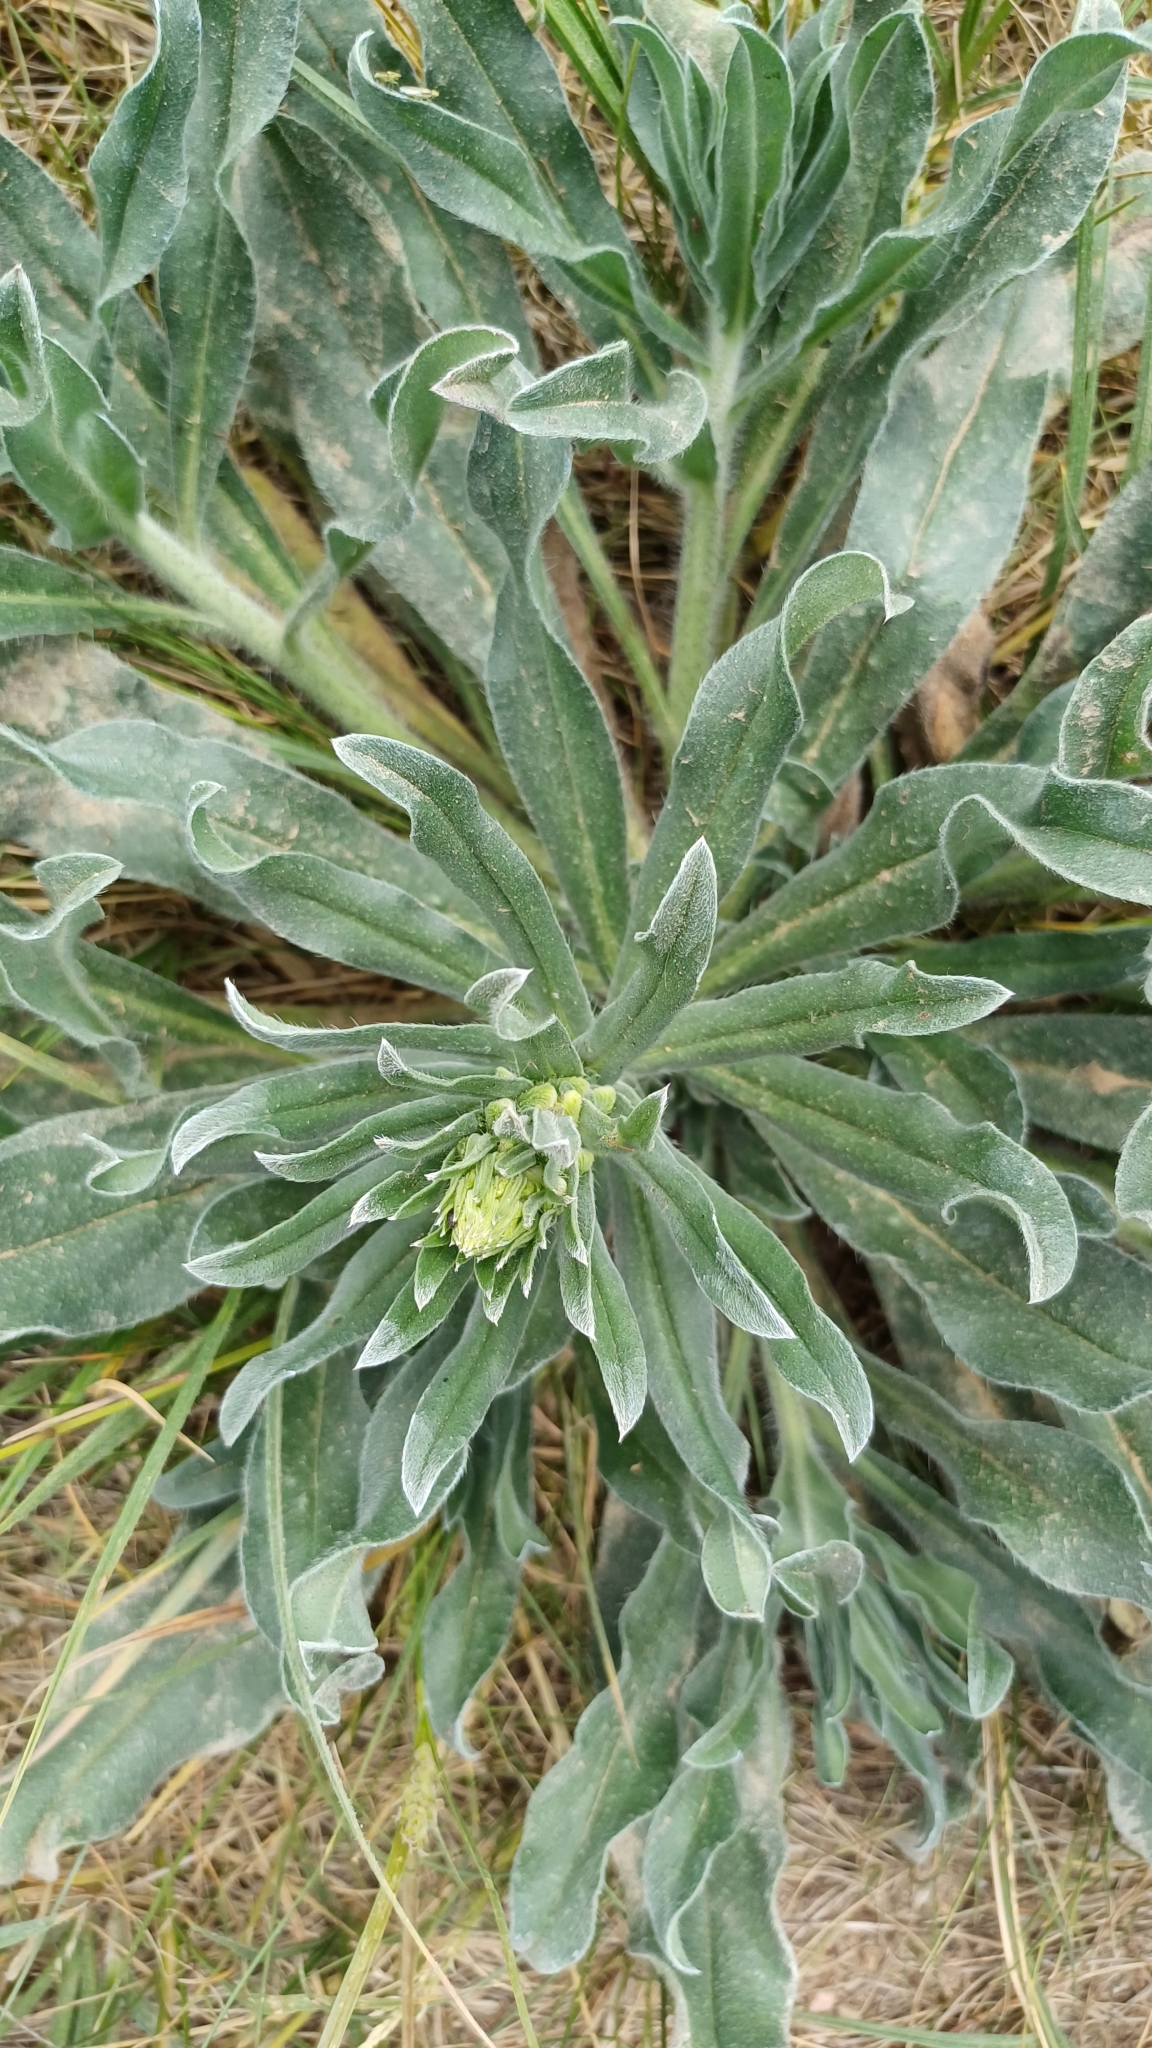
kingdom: Plantae
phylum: Tracheophyta
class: Magnoliopsida
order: Boraginales
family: Boraginaceae
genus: Echium
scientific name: Echium vulgare
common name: Common viper's bugloss
